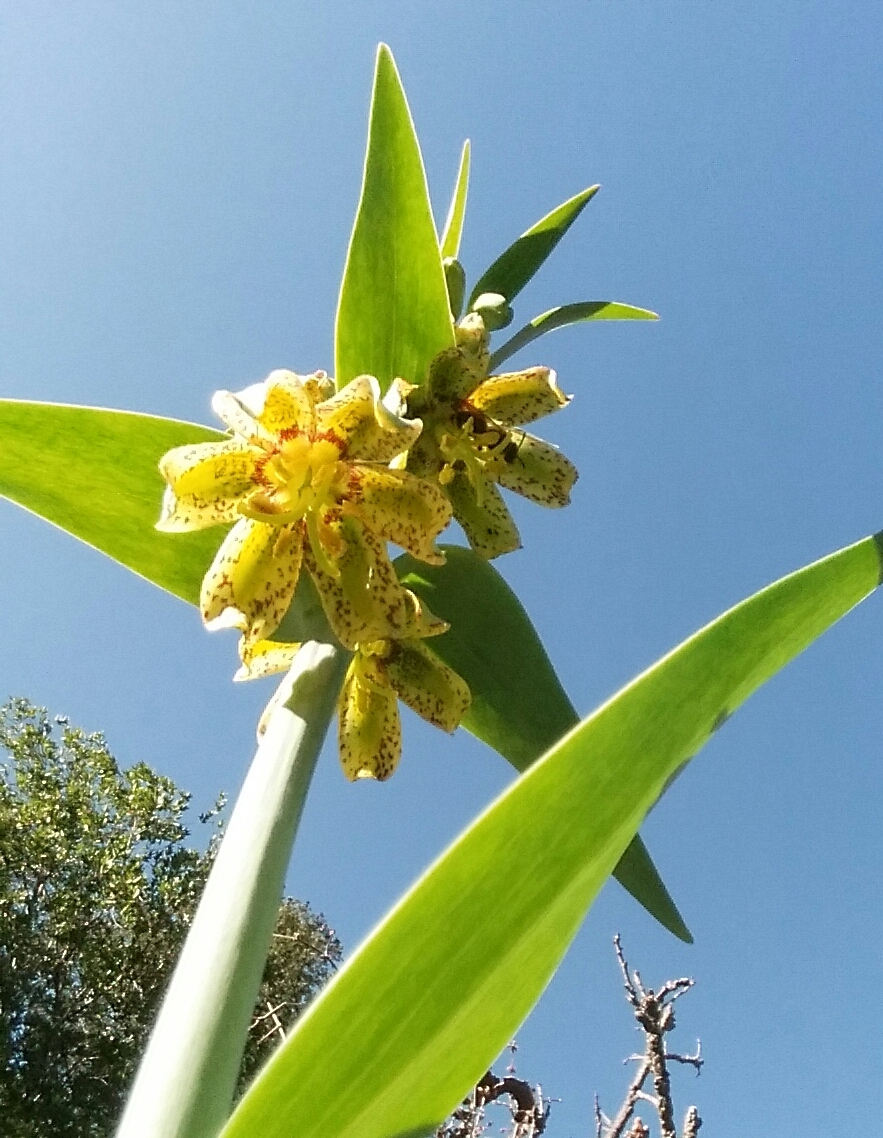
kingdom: Plantae
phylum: Tracheophyta
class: Liliopsida
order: Liliales
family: Liliaceae
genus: Fritillaria
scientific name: Fritillaria affinis
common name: Ojai fritillary
